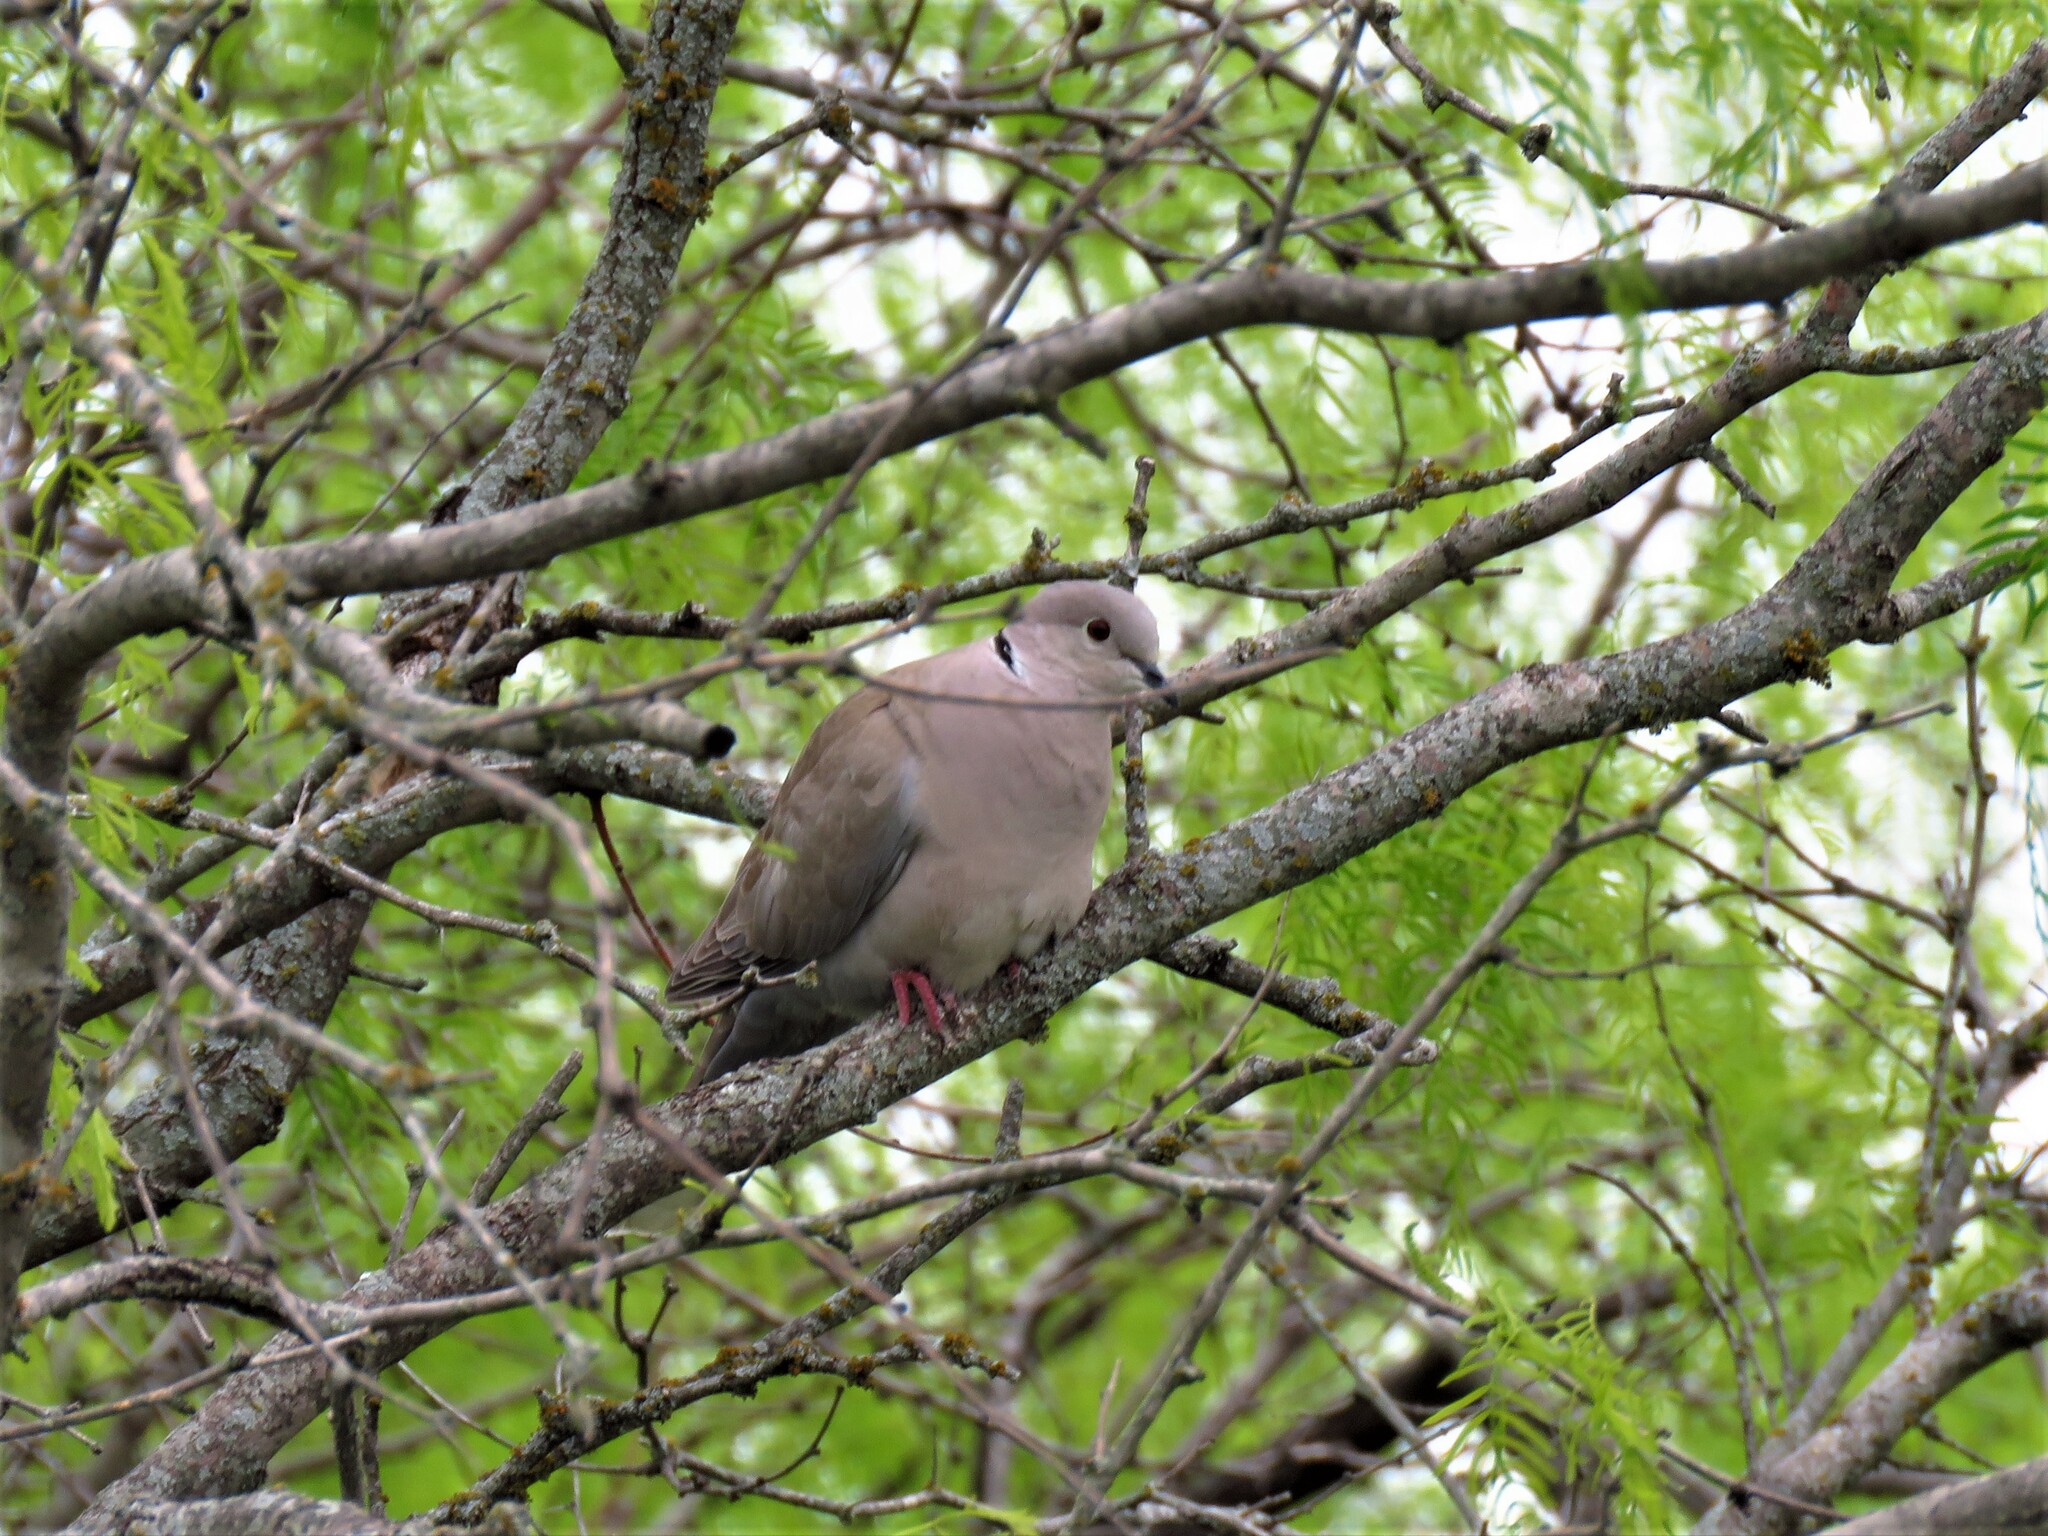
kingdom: Animalia
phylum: Chordata
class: Aves
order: Columbiformes
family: Columbidae
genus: Streptopelia
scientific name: Streptopelia decaocto
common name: Eurasian collared dove
